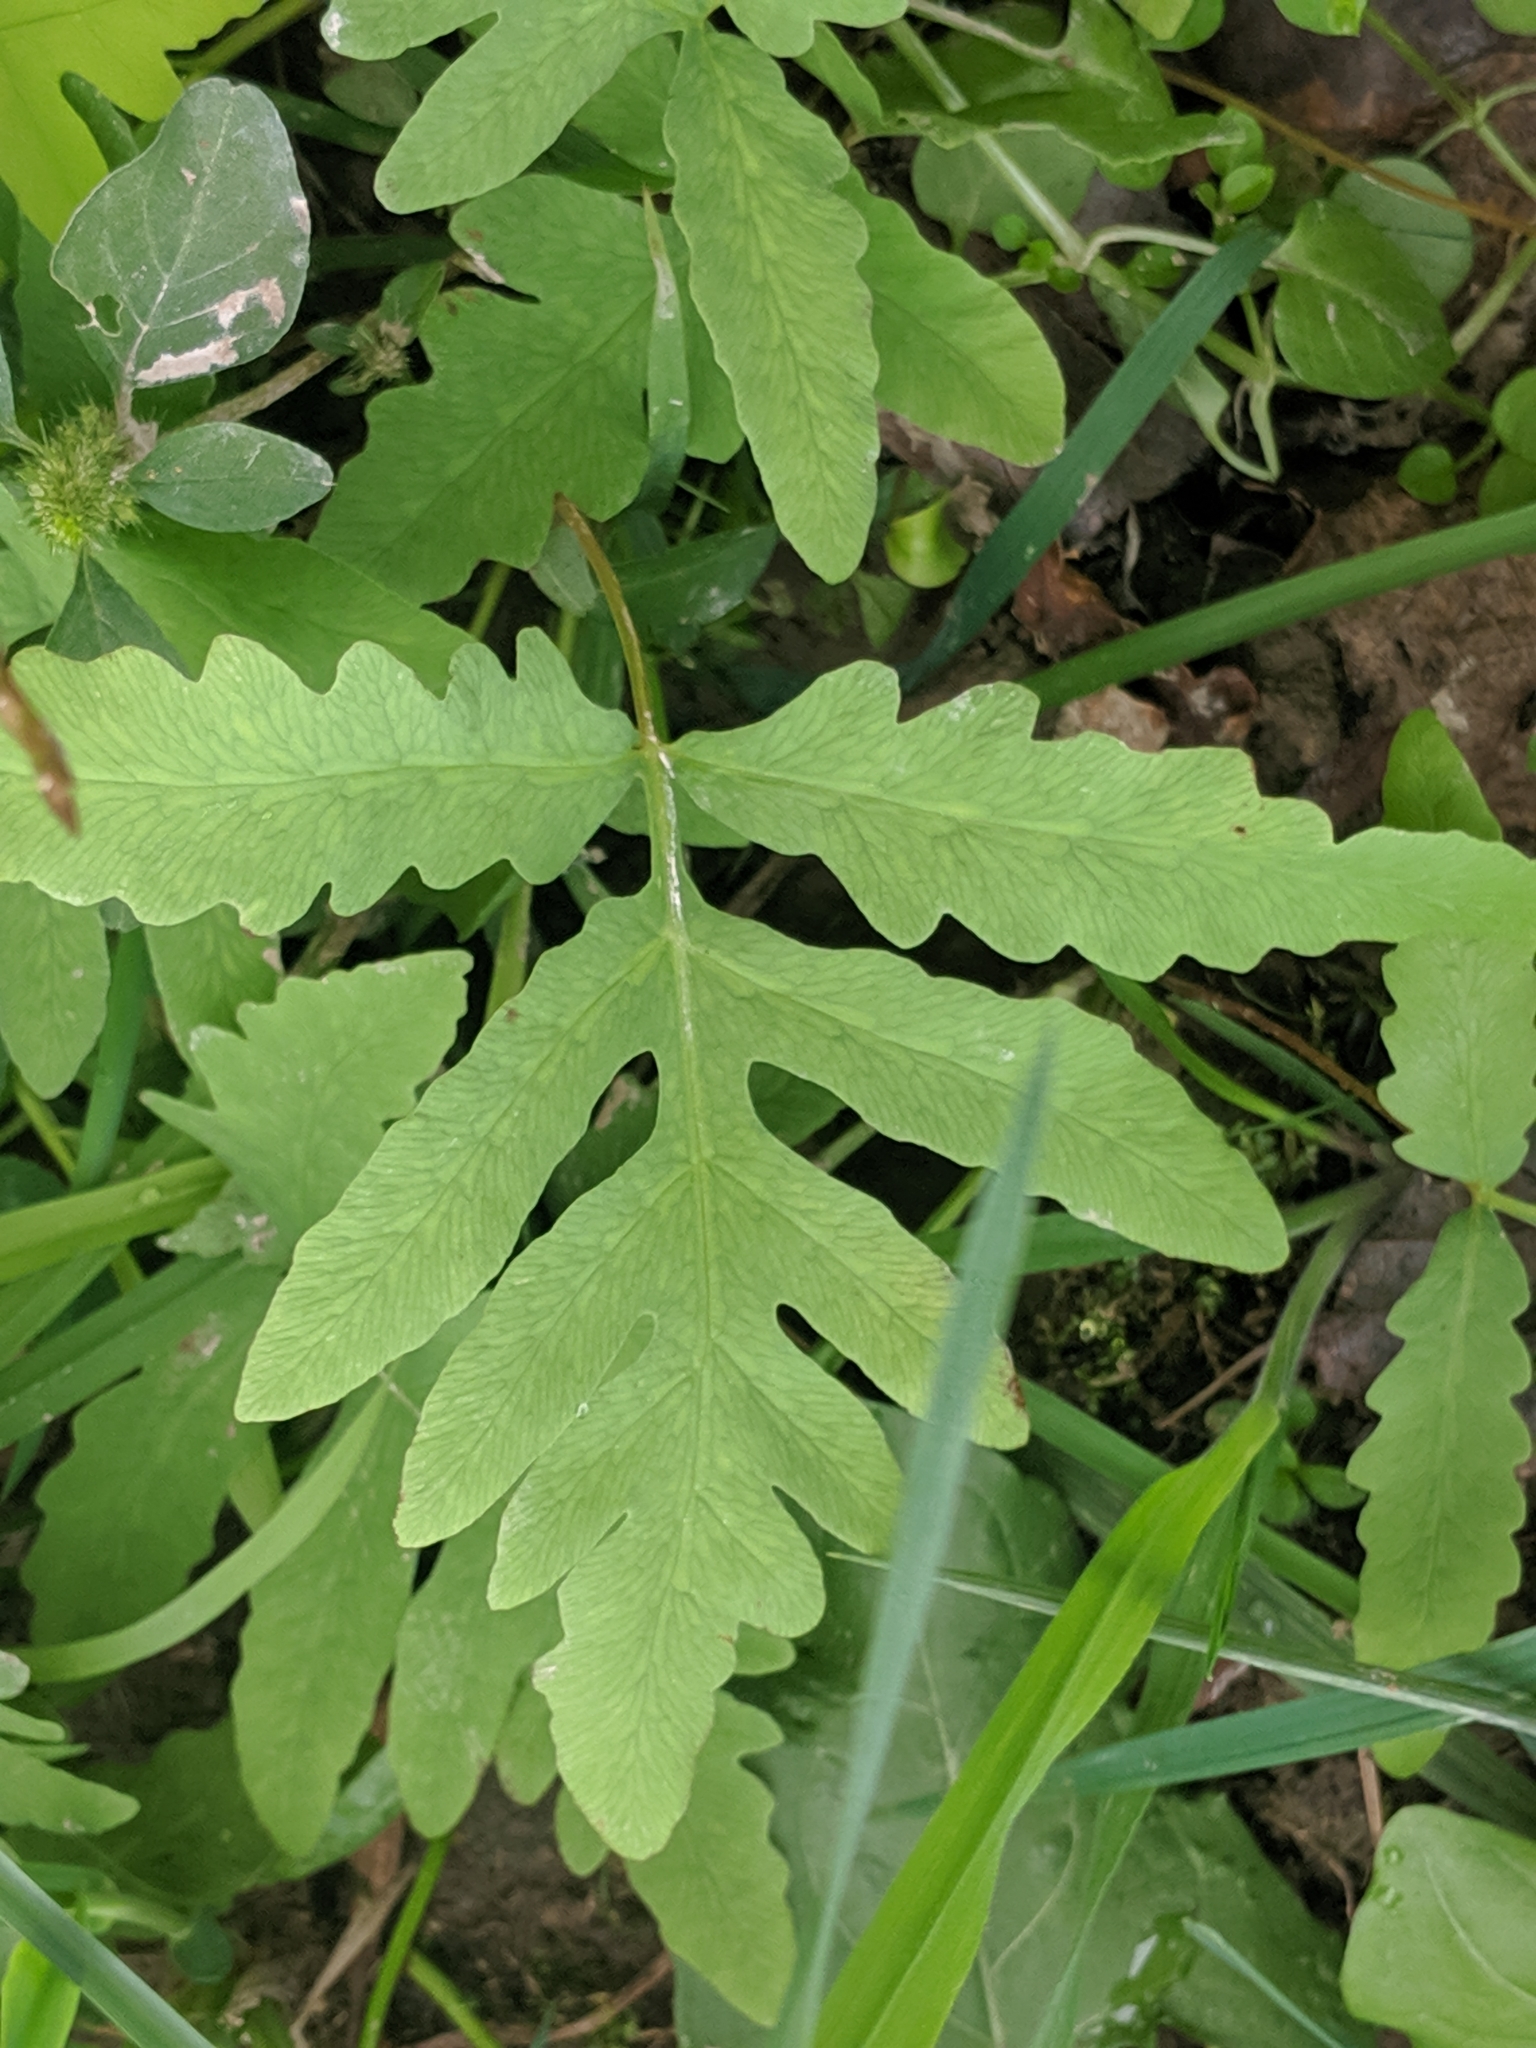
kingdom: Plantae
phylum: Tracheophyta
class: Polypodiopsida
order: Polypodiales
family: Onocleaceae
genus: Onoclea
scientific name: Onoclea sensibilis
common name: Sensitive fern
